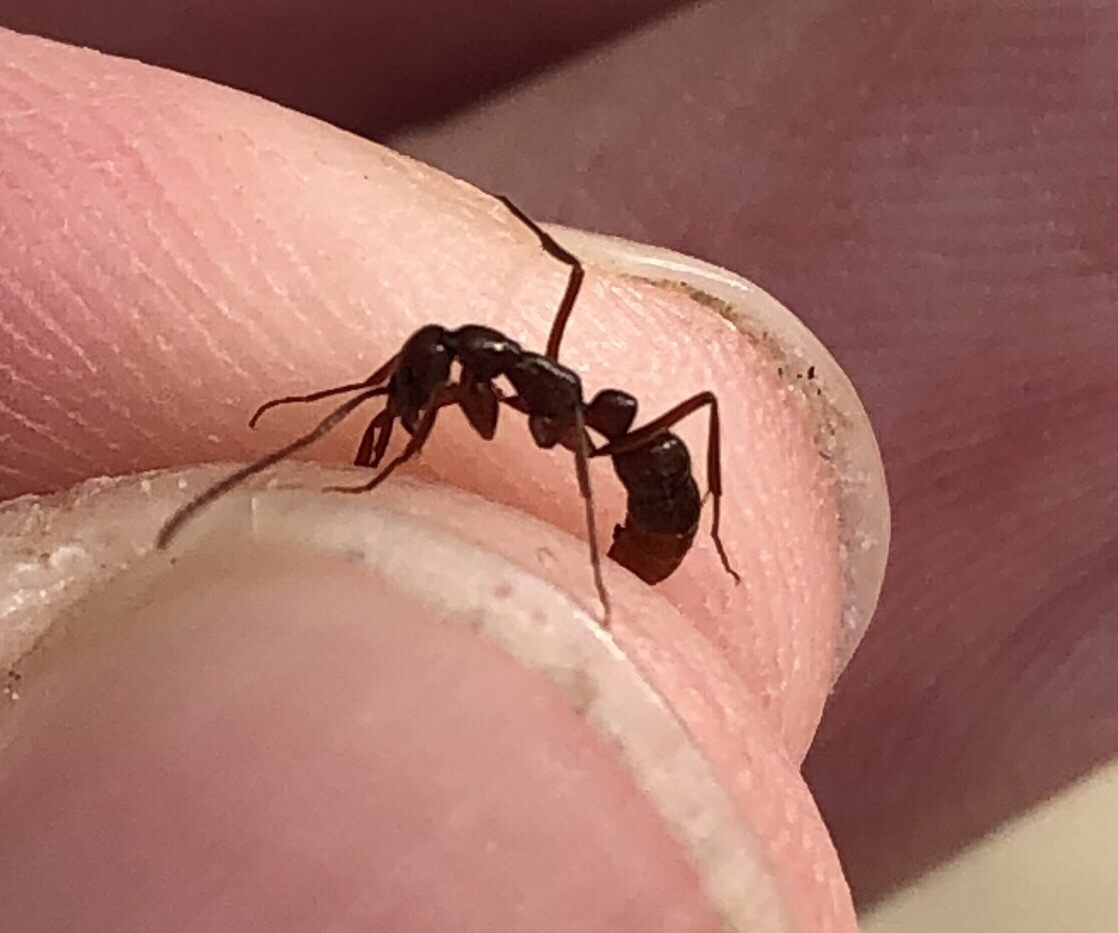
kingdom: Animalia
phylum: Arthropoda
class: Insecta
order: Hymenoptera
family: Formicidae
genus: Leptogenys
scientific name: Leptogenys elongata
